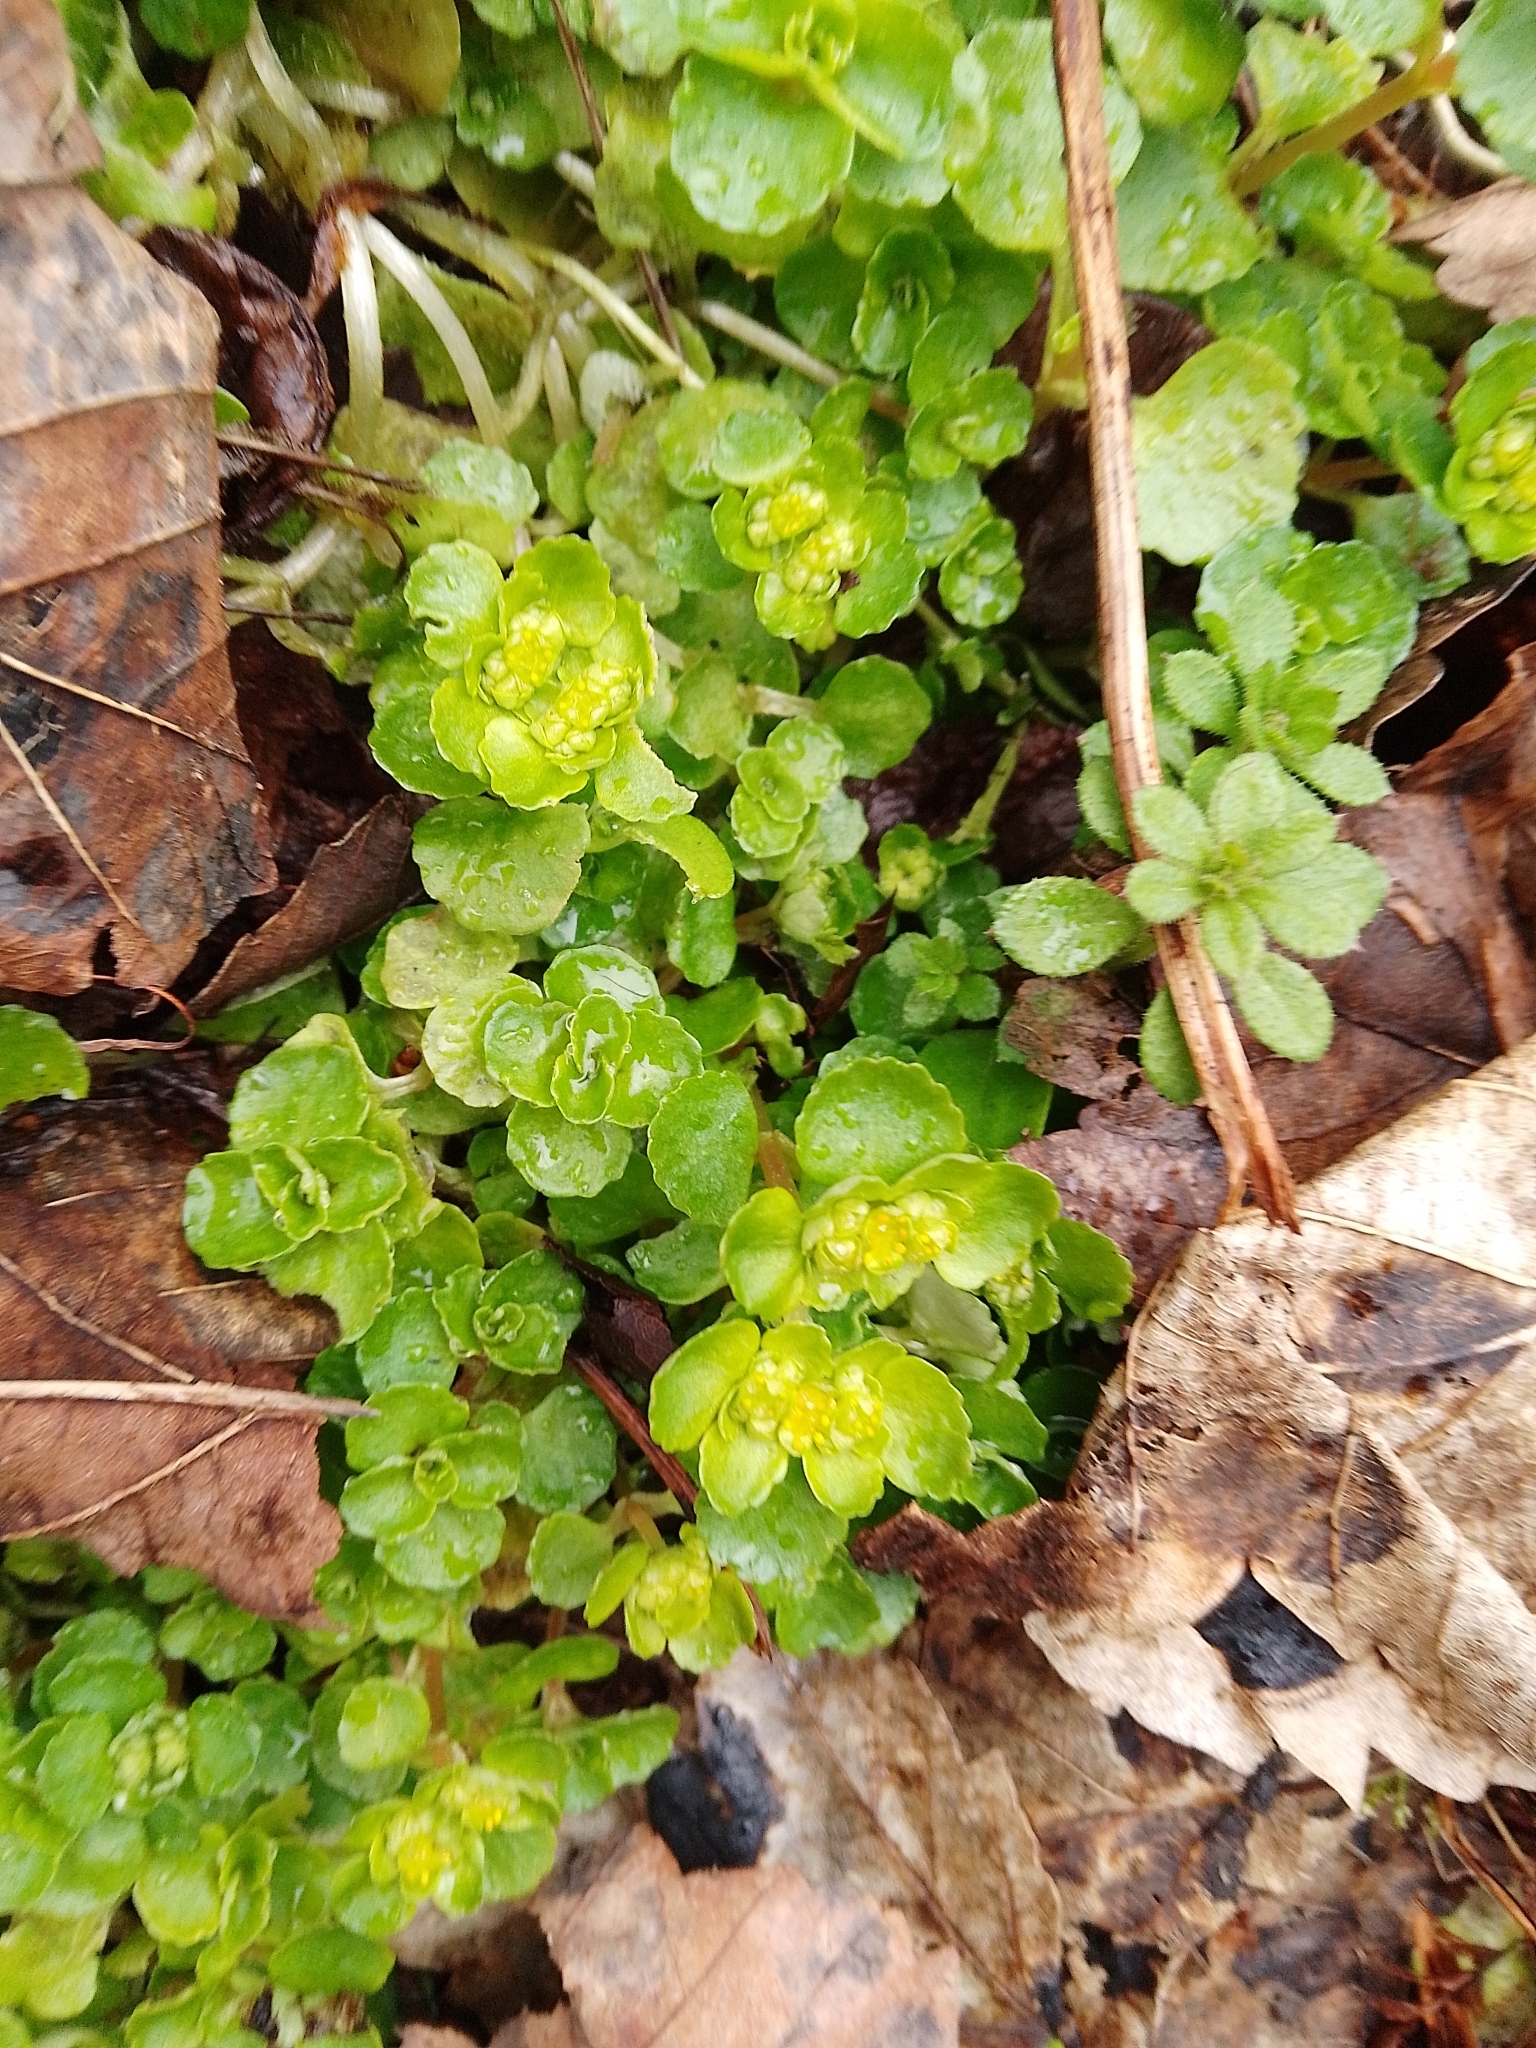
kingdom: Plantae
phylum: Tracheophyta
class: Magnoliopsida
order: Saxifragales
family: Saxifragaceae
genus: Chrysosplenium
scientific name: Chrysosplenium oppositifolium
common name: Opposite-leaved golden-saxifrage
